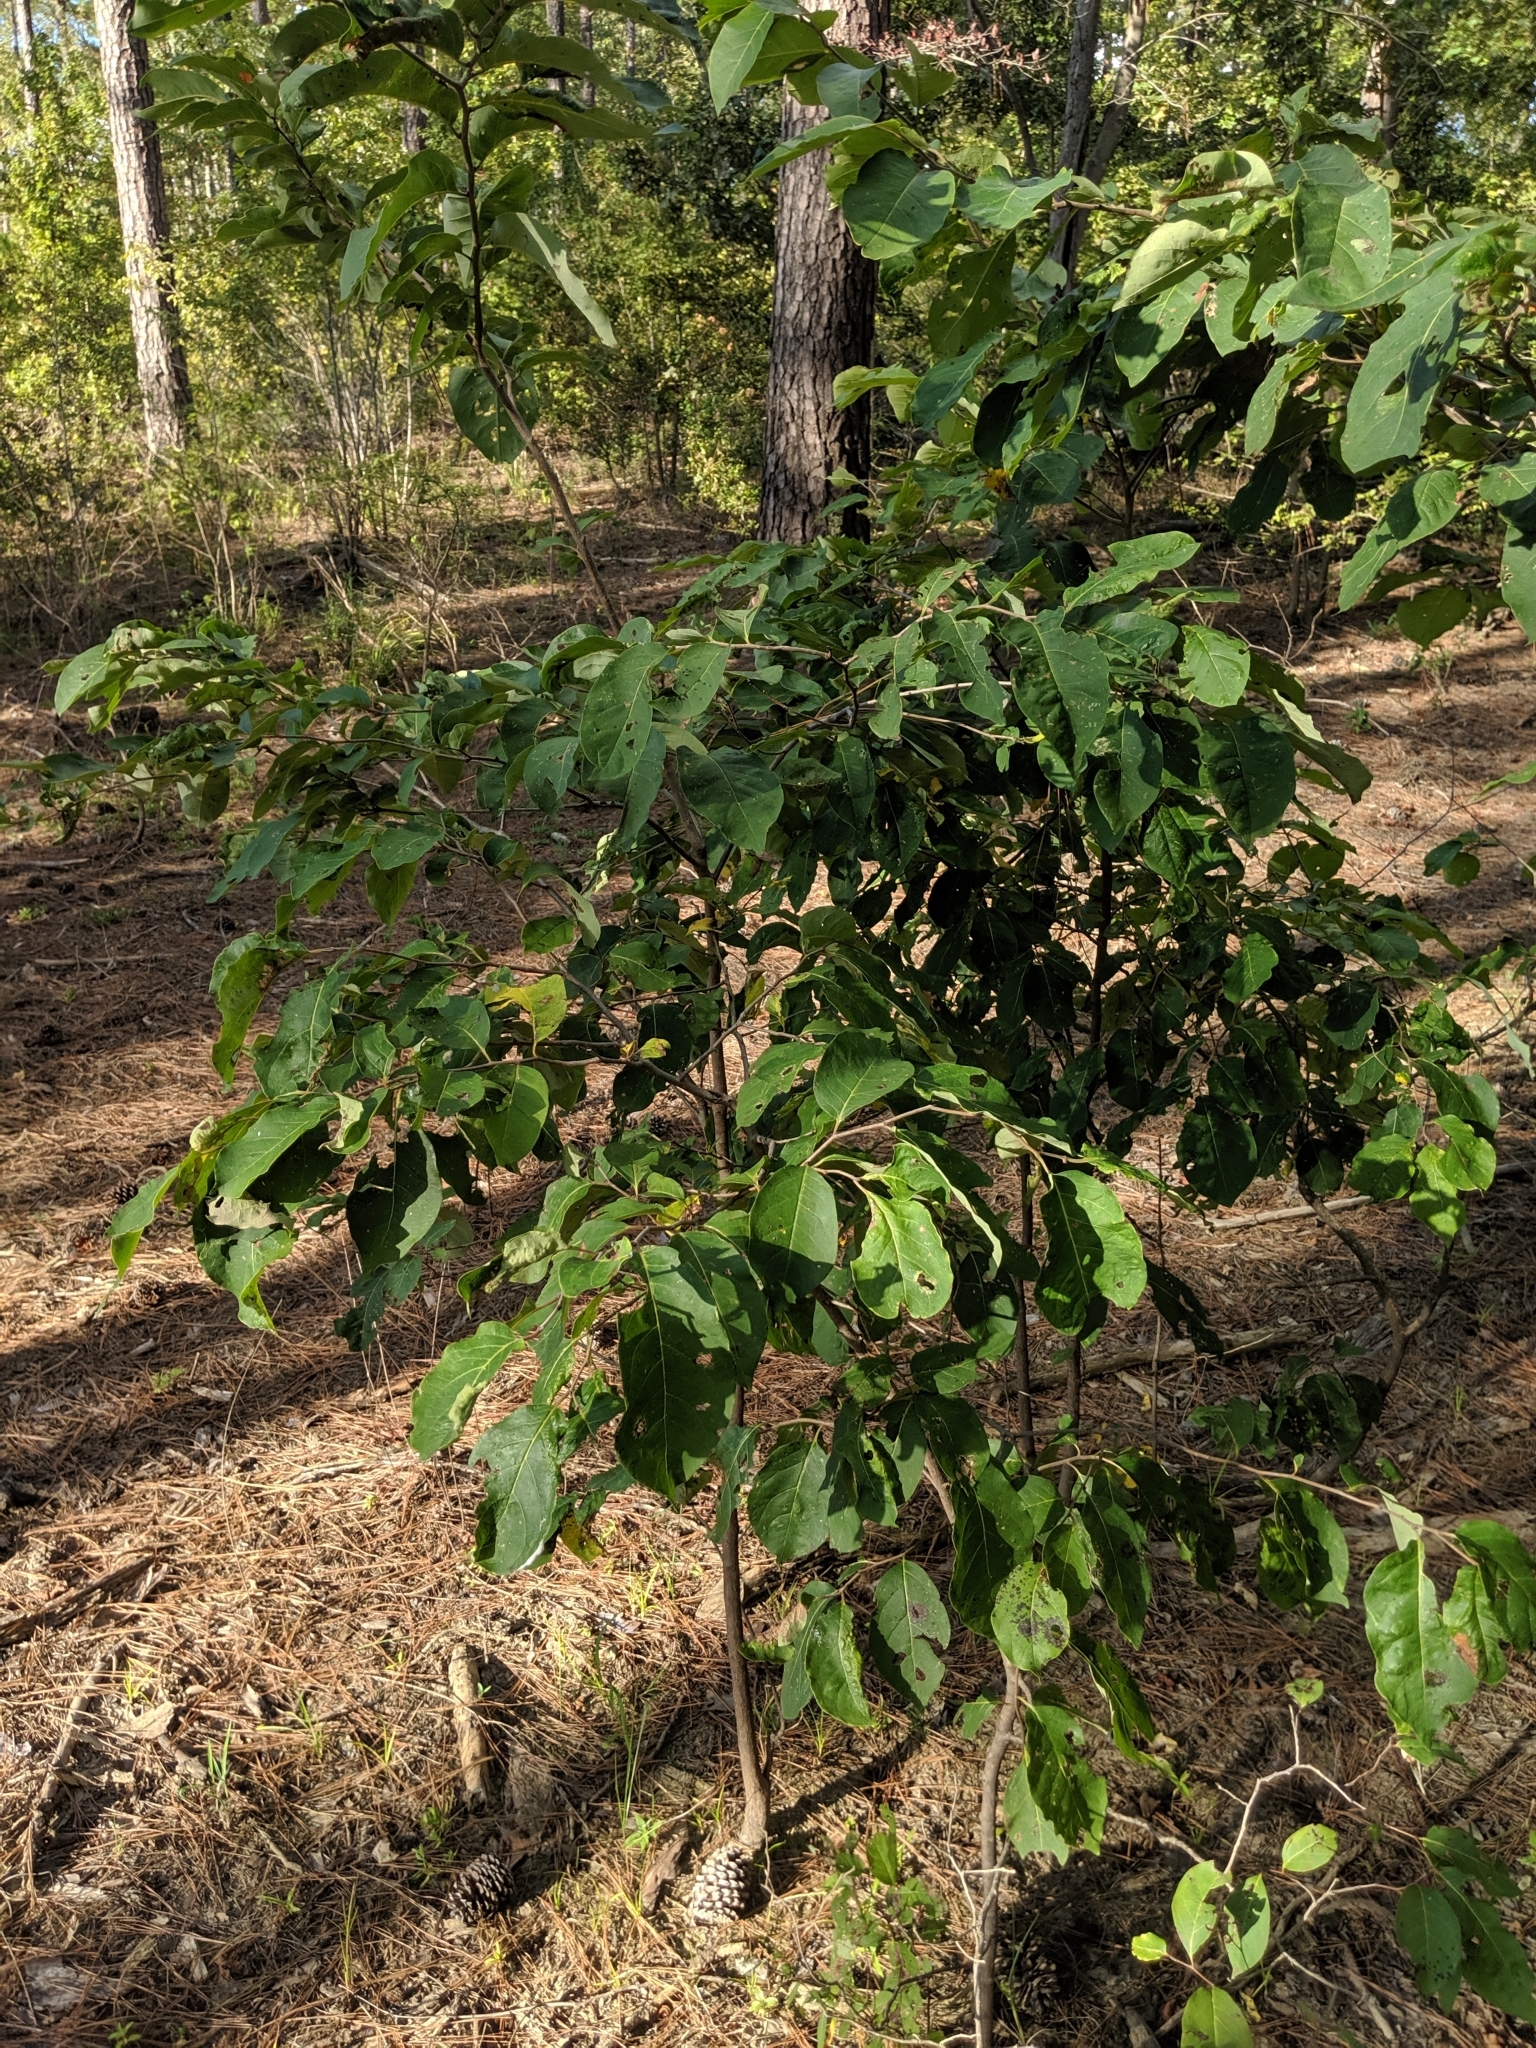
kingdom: Plantae
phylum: Tracheophyta
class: Magnoliopsida
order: Ericales
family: Ebenaceae
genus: Diospyros
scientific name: Diospyros virginiana
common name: Persimmon
